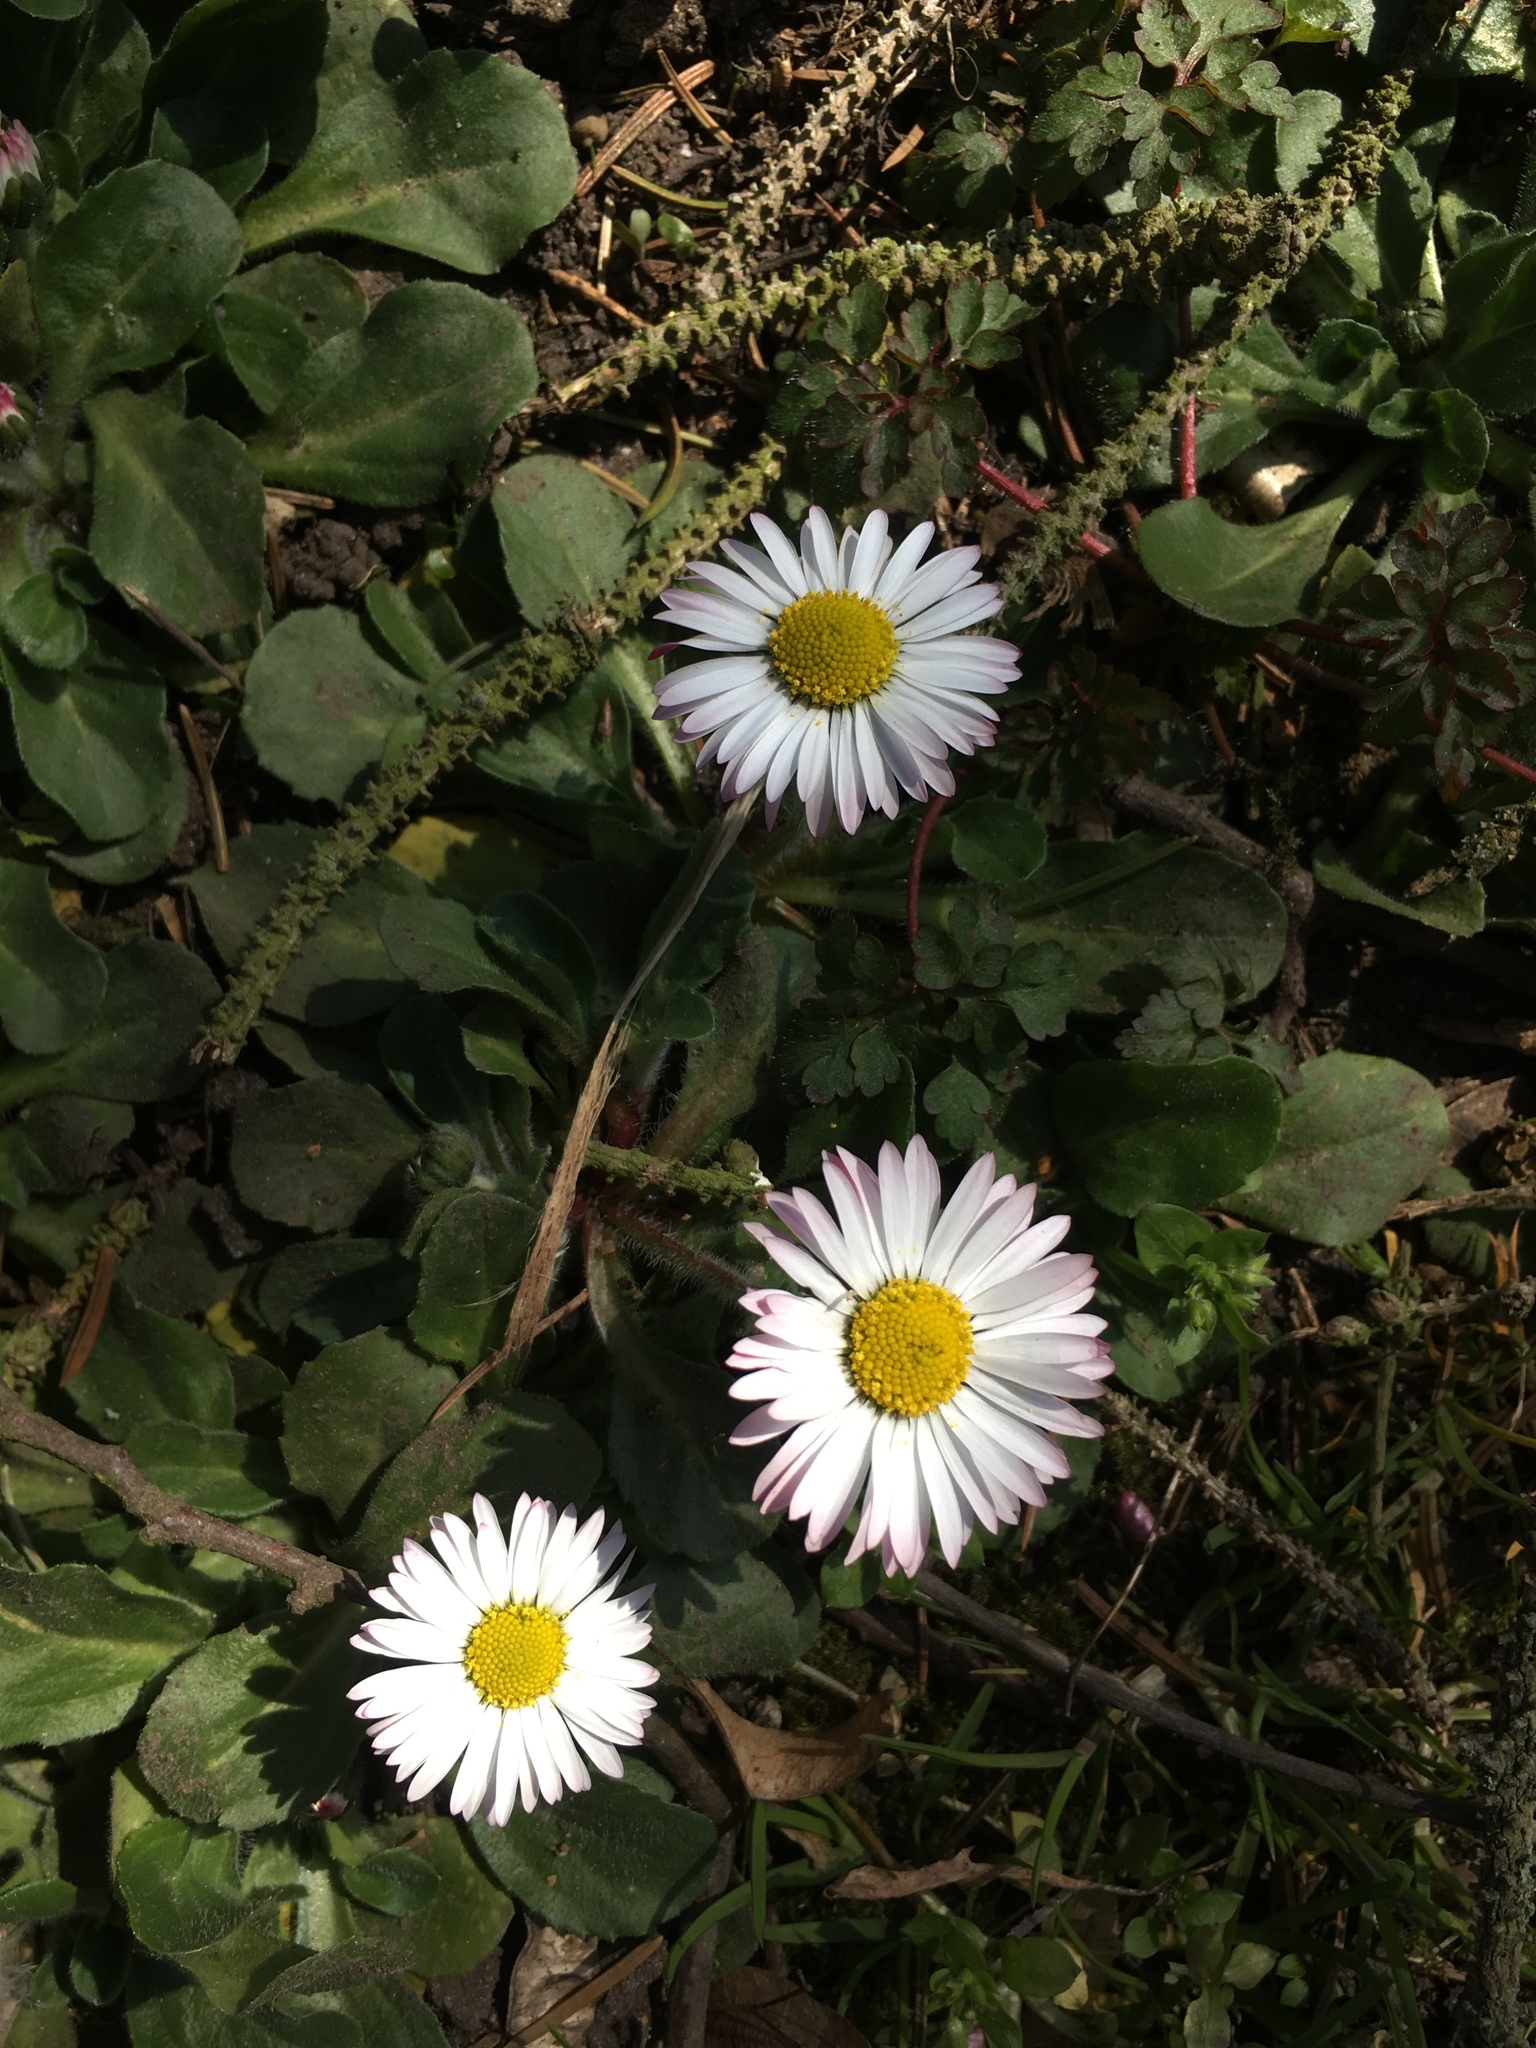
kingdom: Plantae
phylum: Tracheophyta
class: Magnoliopsida
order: Asterales
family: Asteraceae
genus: Bellis
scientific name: Bellis perennis
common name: Lawndaisy
